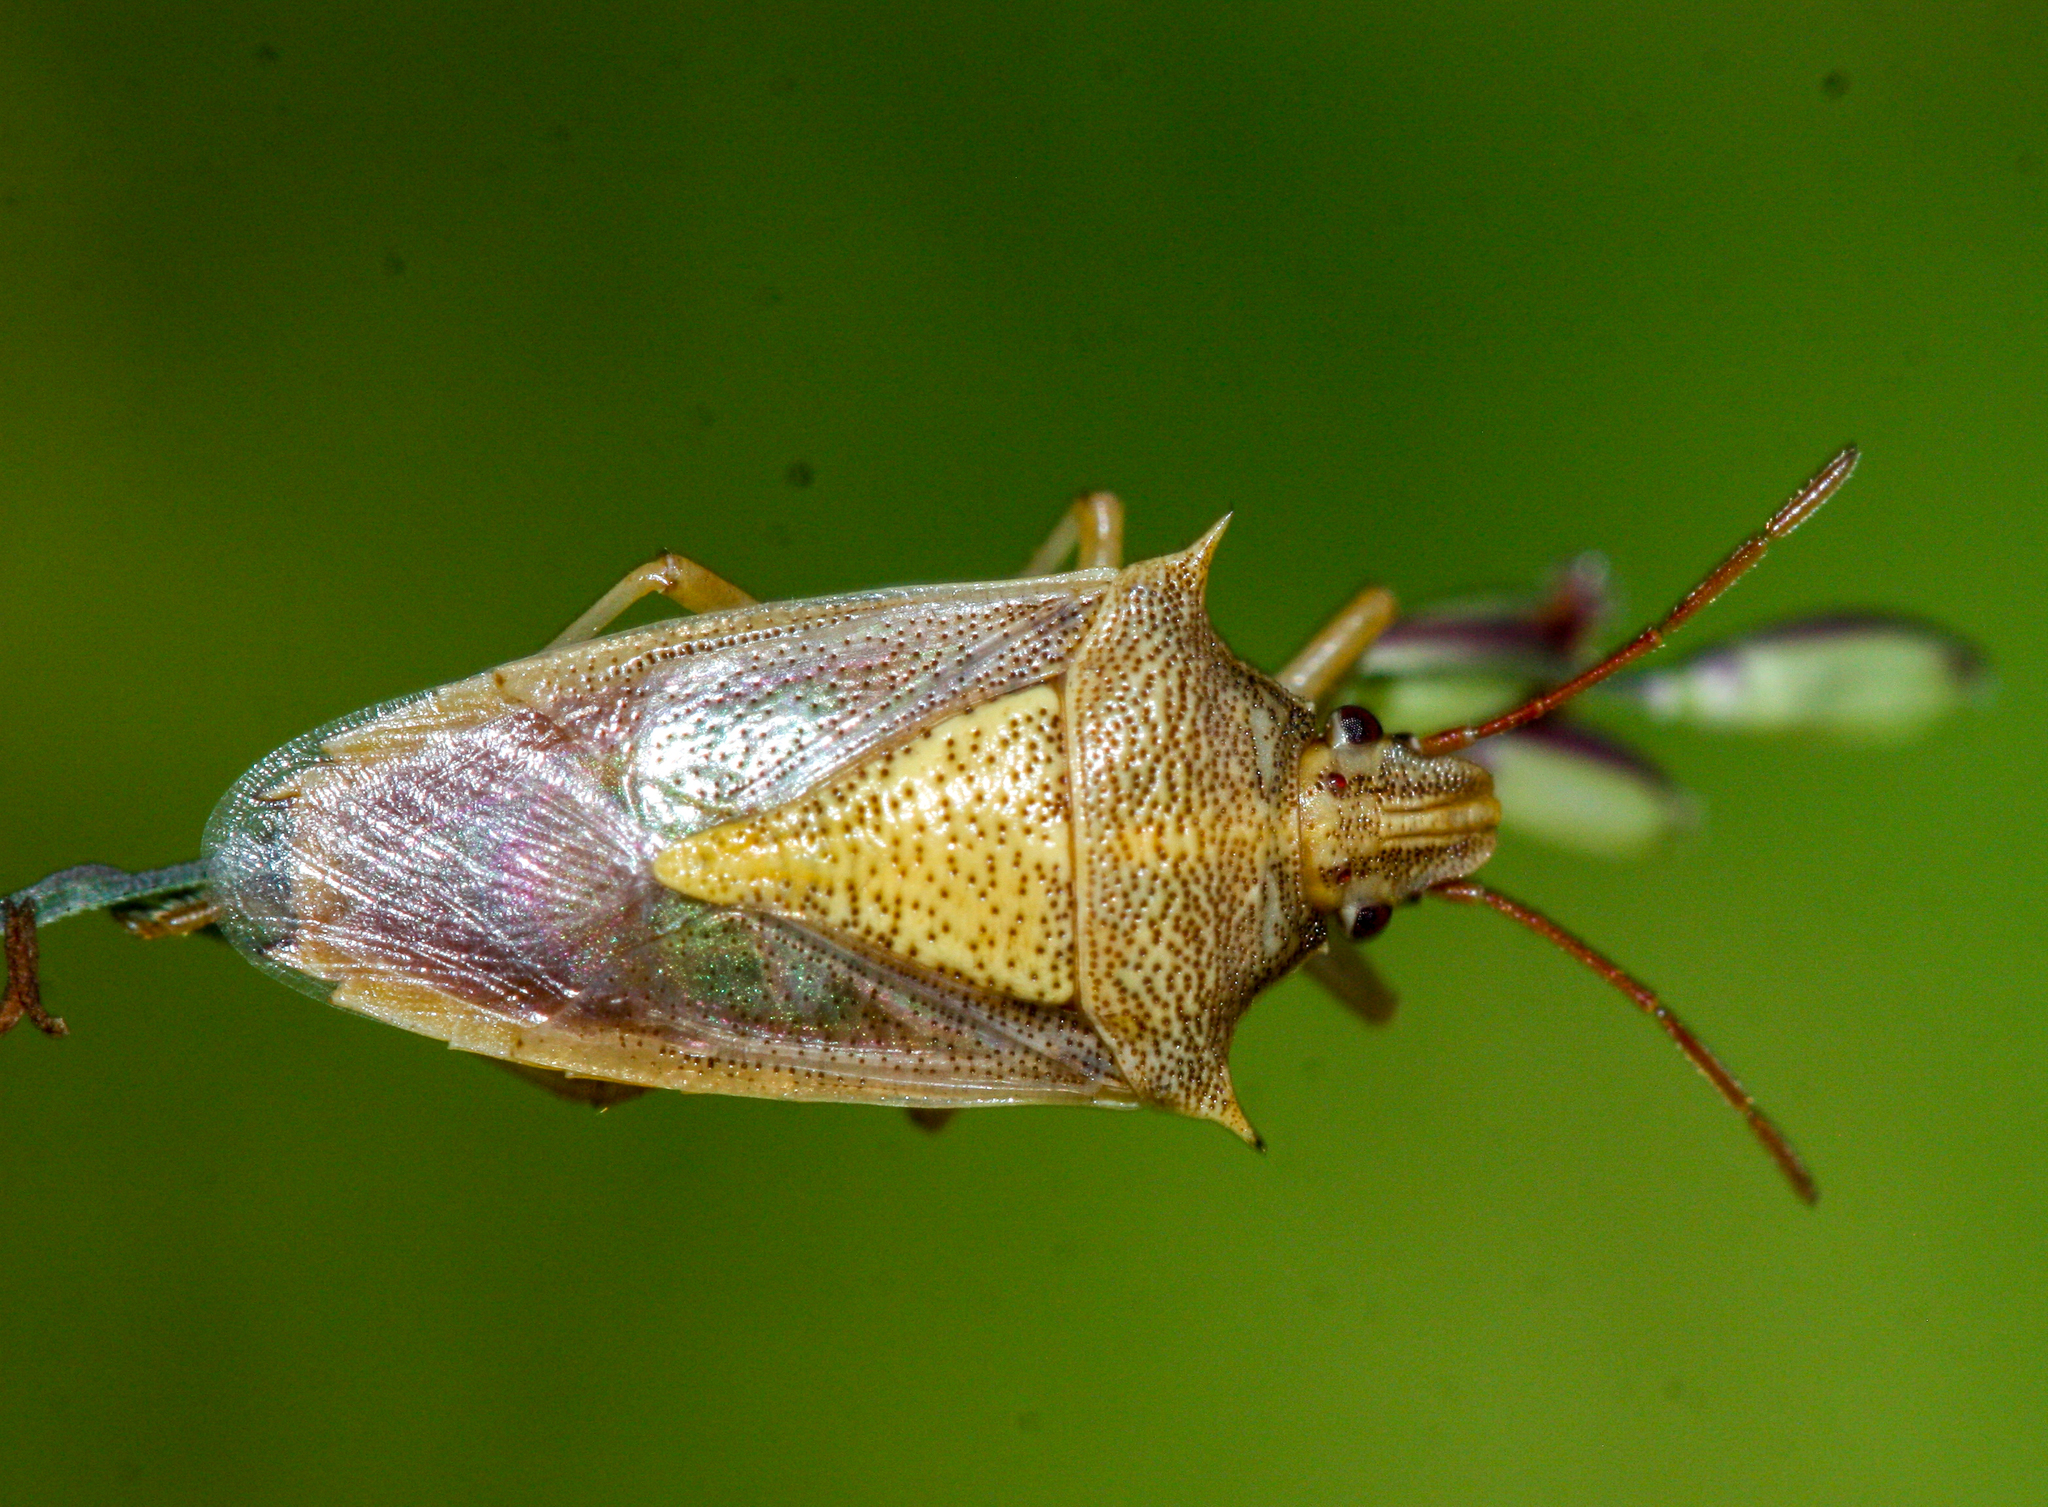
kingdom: Animalia
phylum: Arthropoda
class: Insecta
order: Hemiptera
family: Pentatomidae
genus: Oebalus
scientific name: Oebalus pugnax
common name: Rice stink bug
